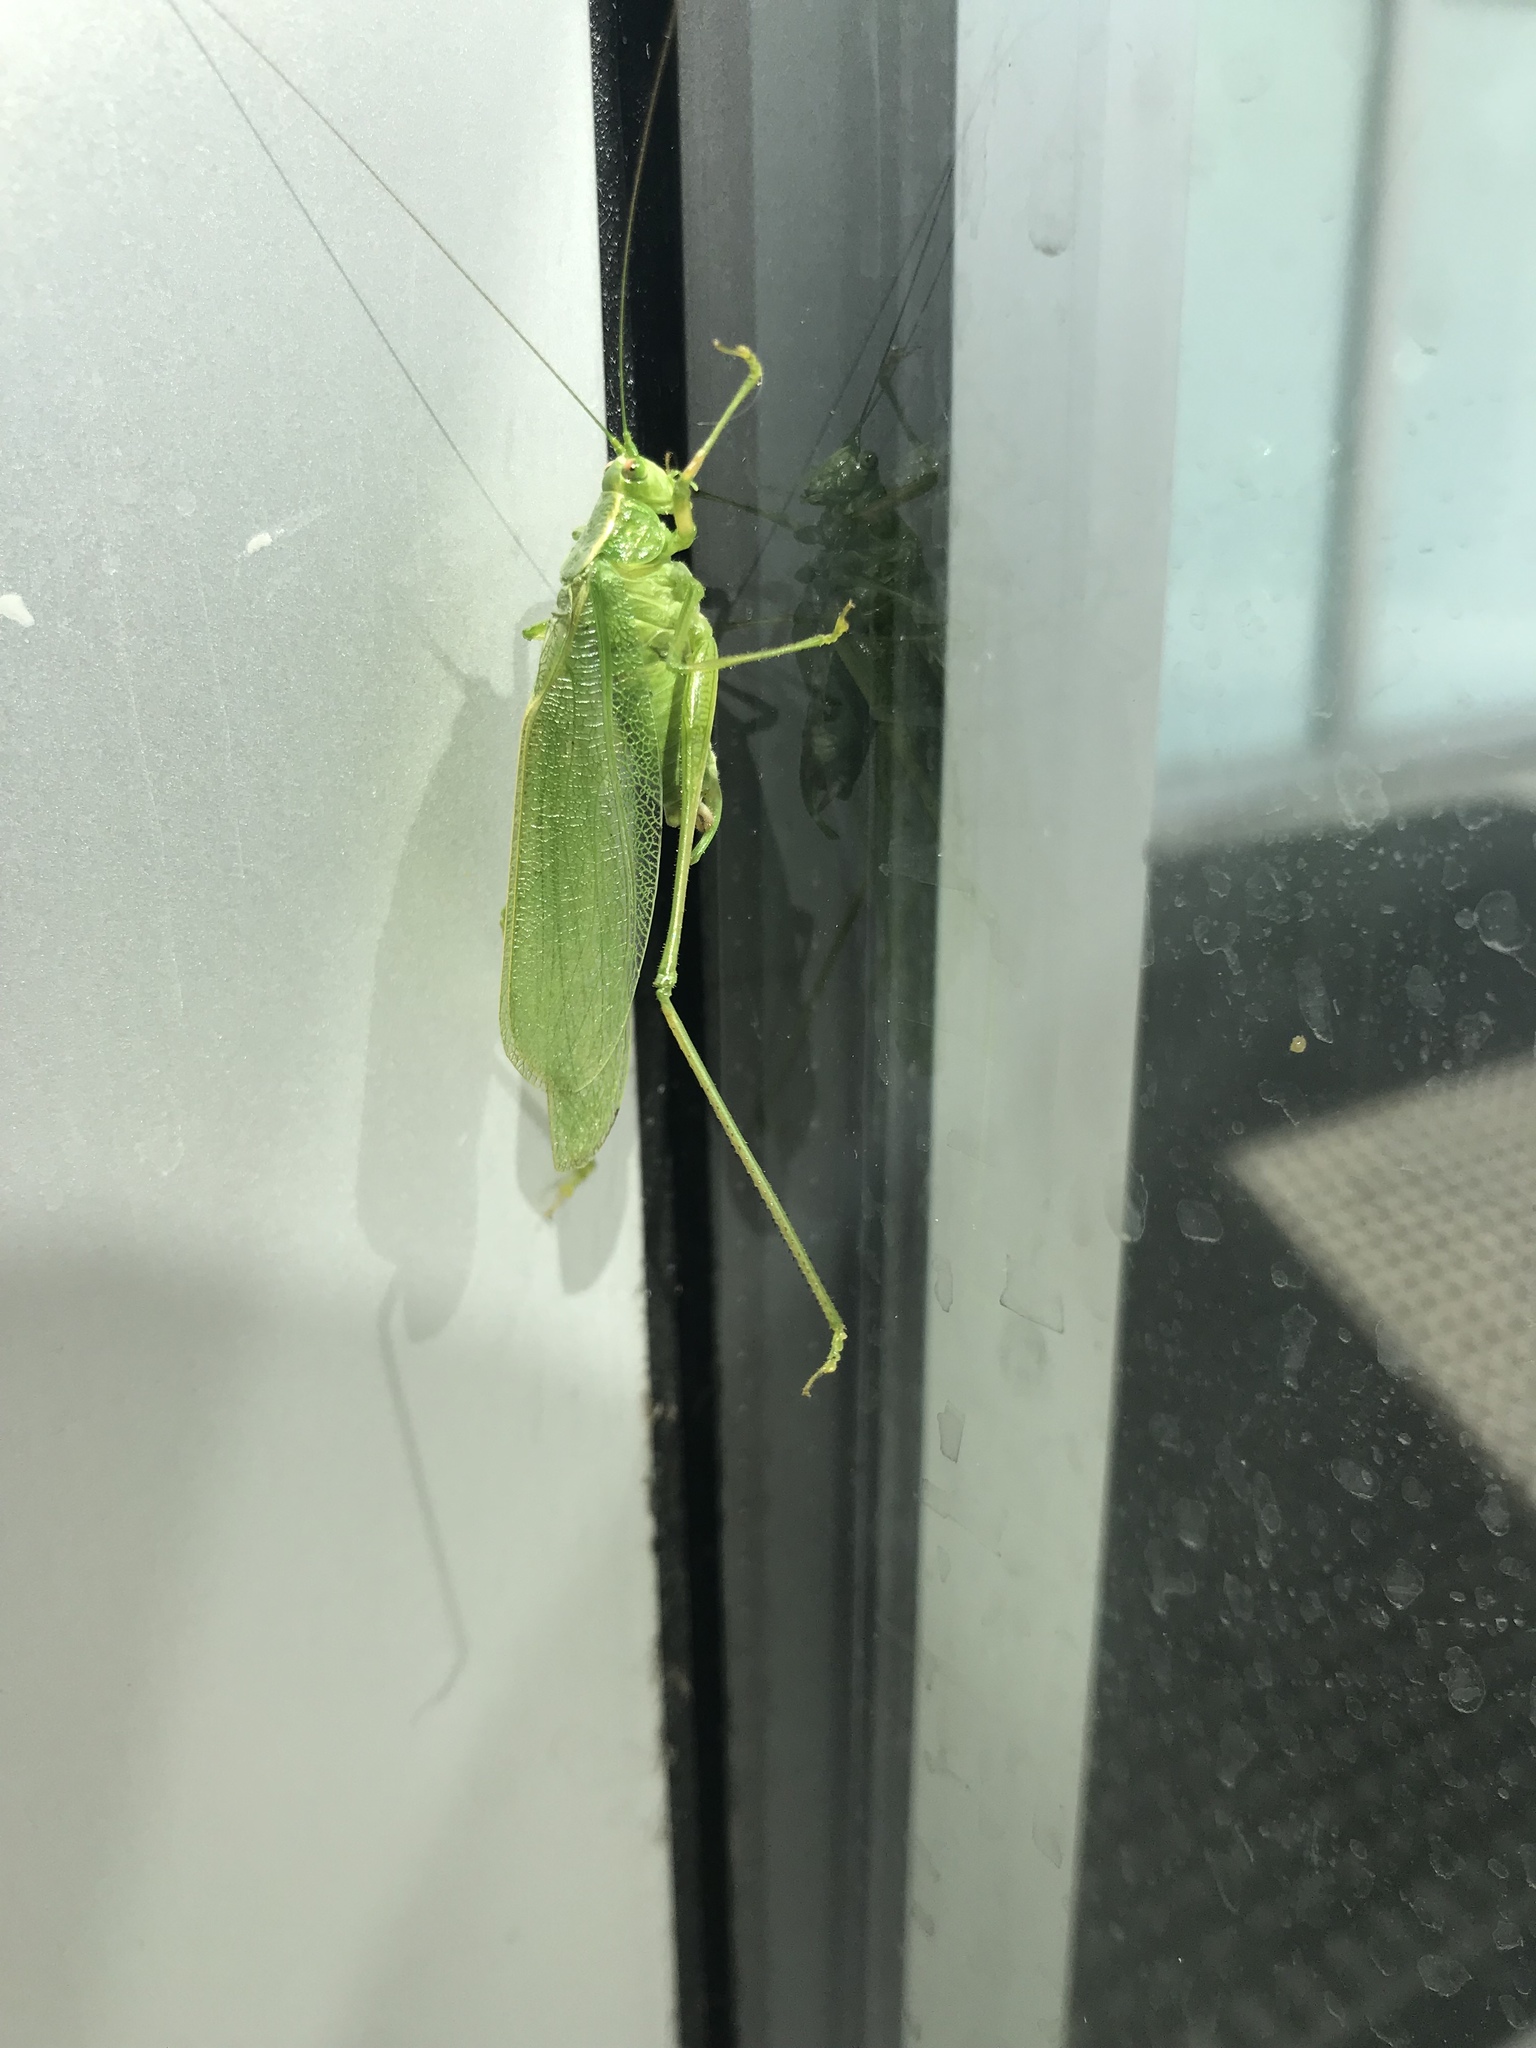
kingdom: Animalia
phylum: Arthropoda
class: Insecta
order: Orthoptera
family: Tettigoniidae
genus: Scudderia
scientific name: Scudderia septentrionalis
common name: Northern bush-katydid
